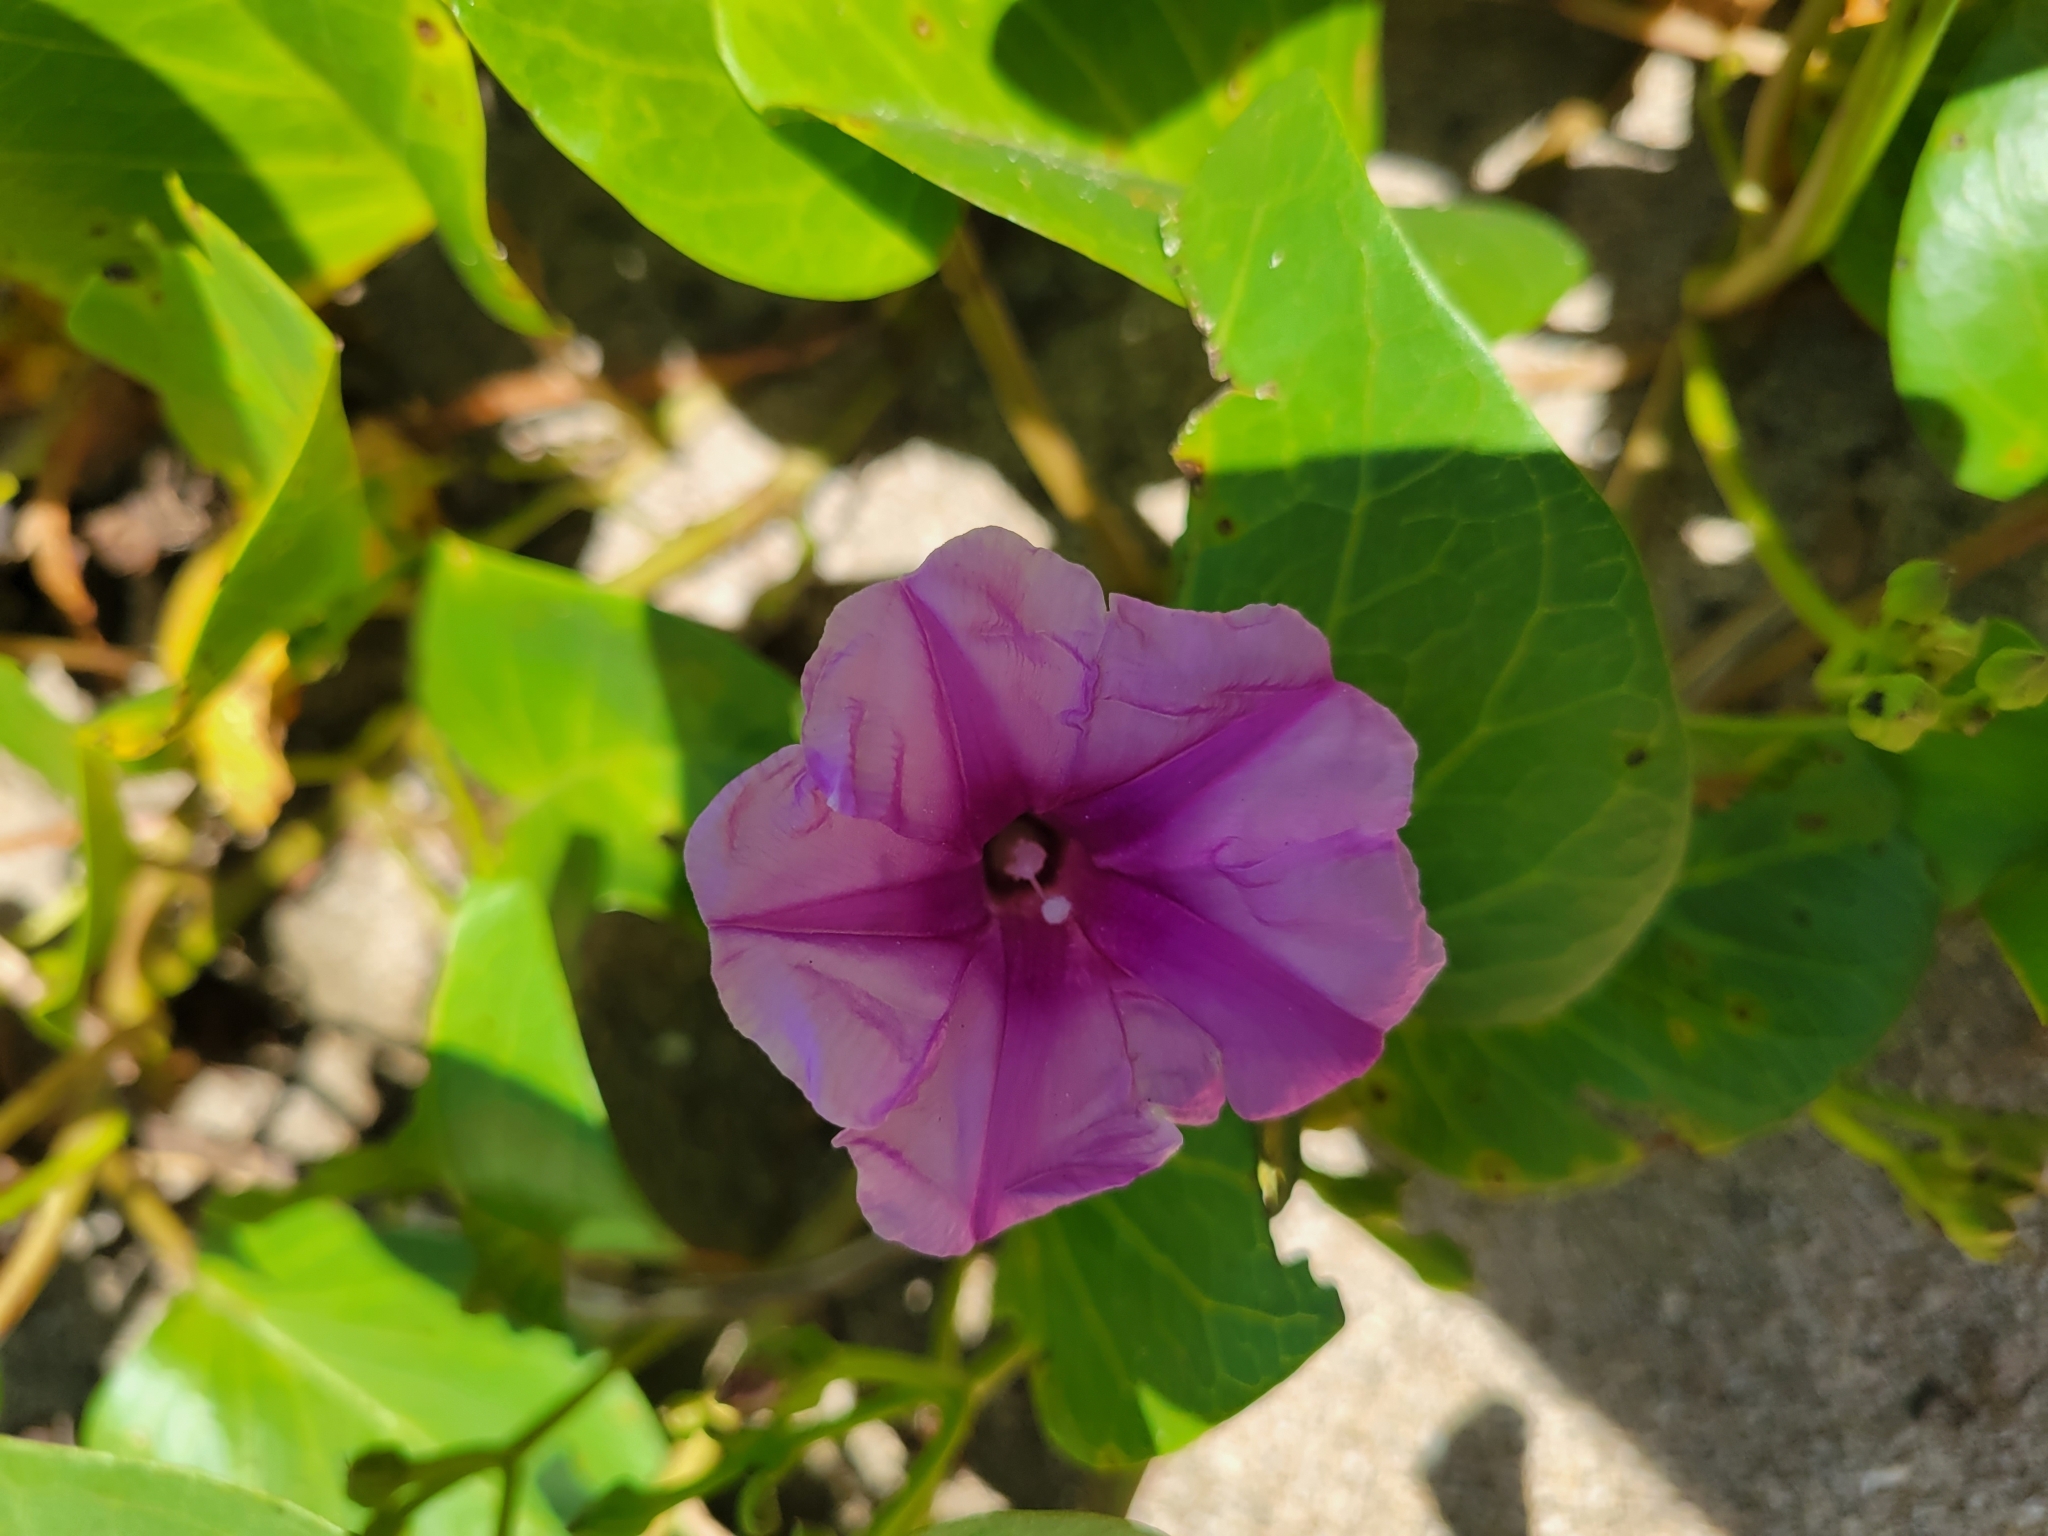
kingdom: Plantae
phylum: Tracheophyta
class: Magnoliopsida
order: Solanales
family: Convolvulaceae
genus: Ipomoea
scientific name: Ipomoea pes-caprae
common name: Beach morning glory
